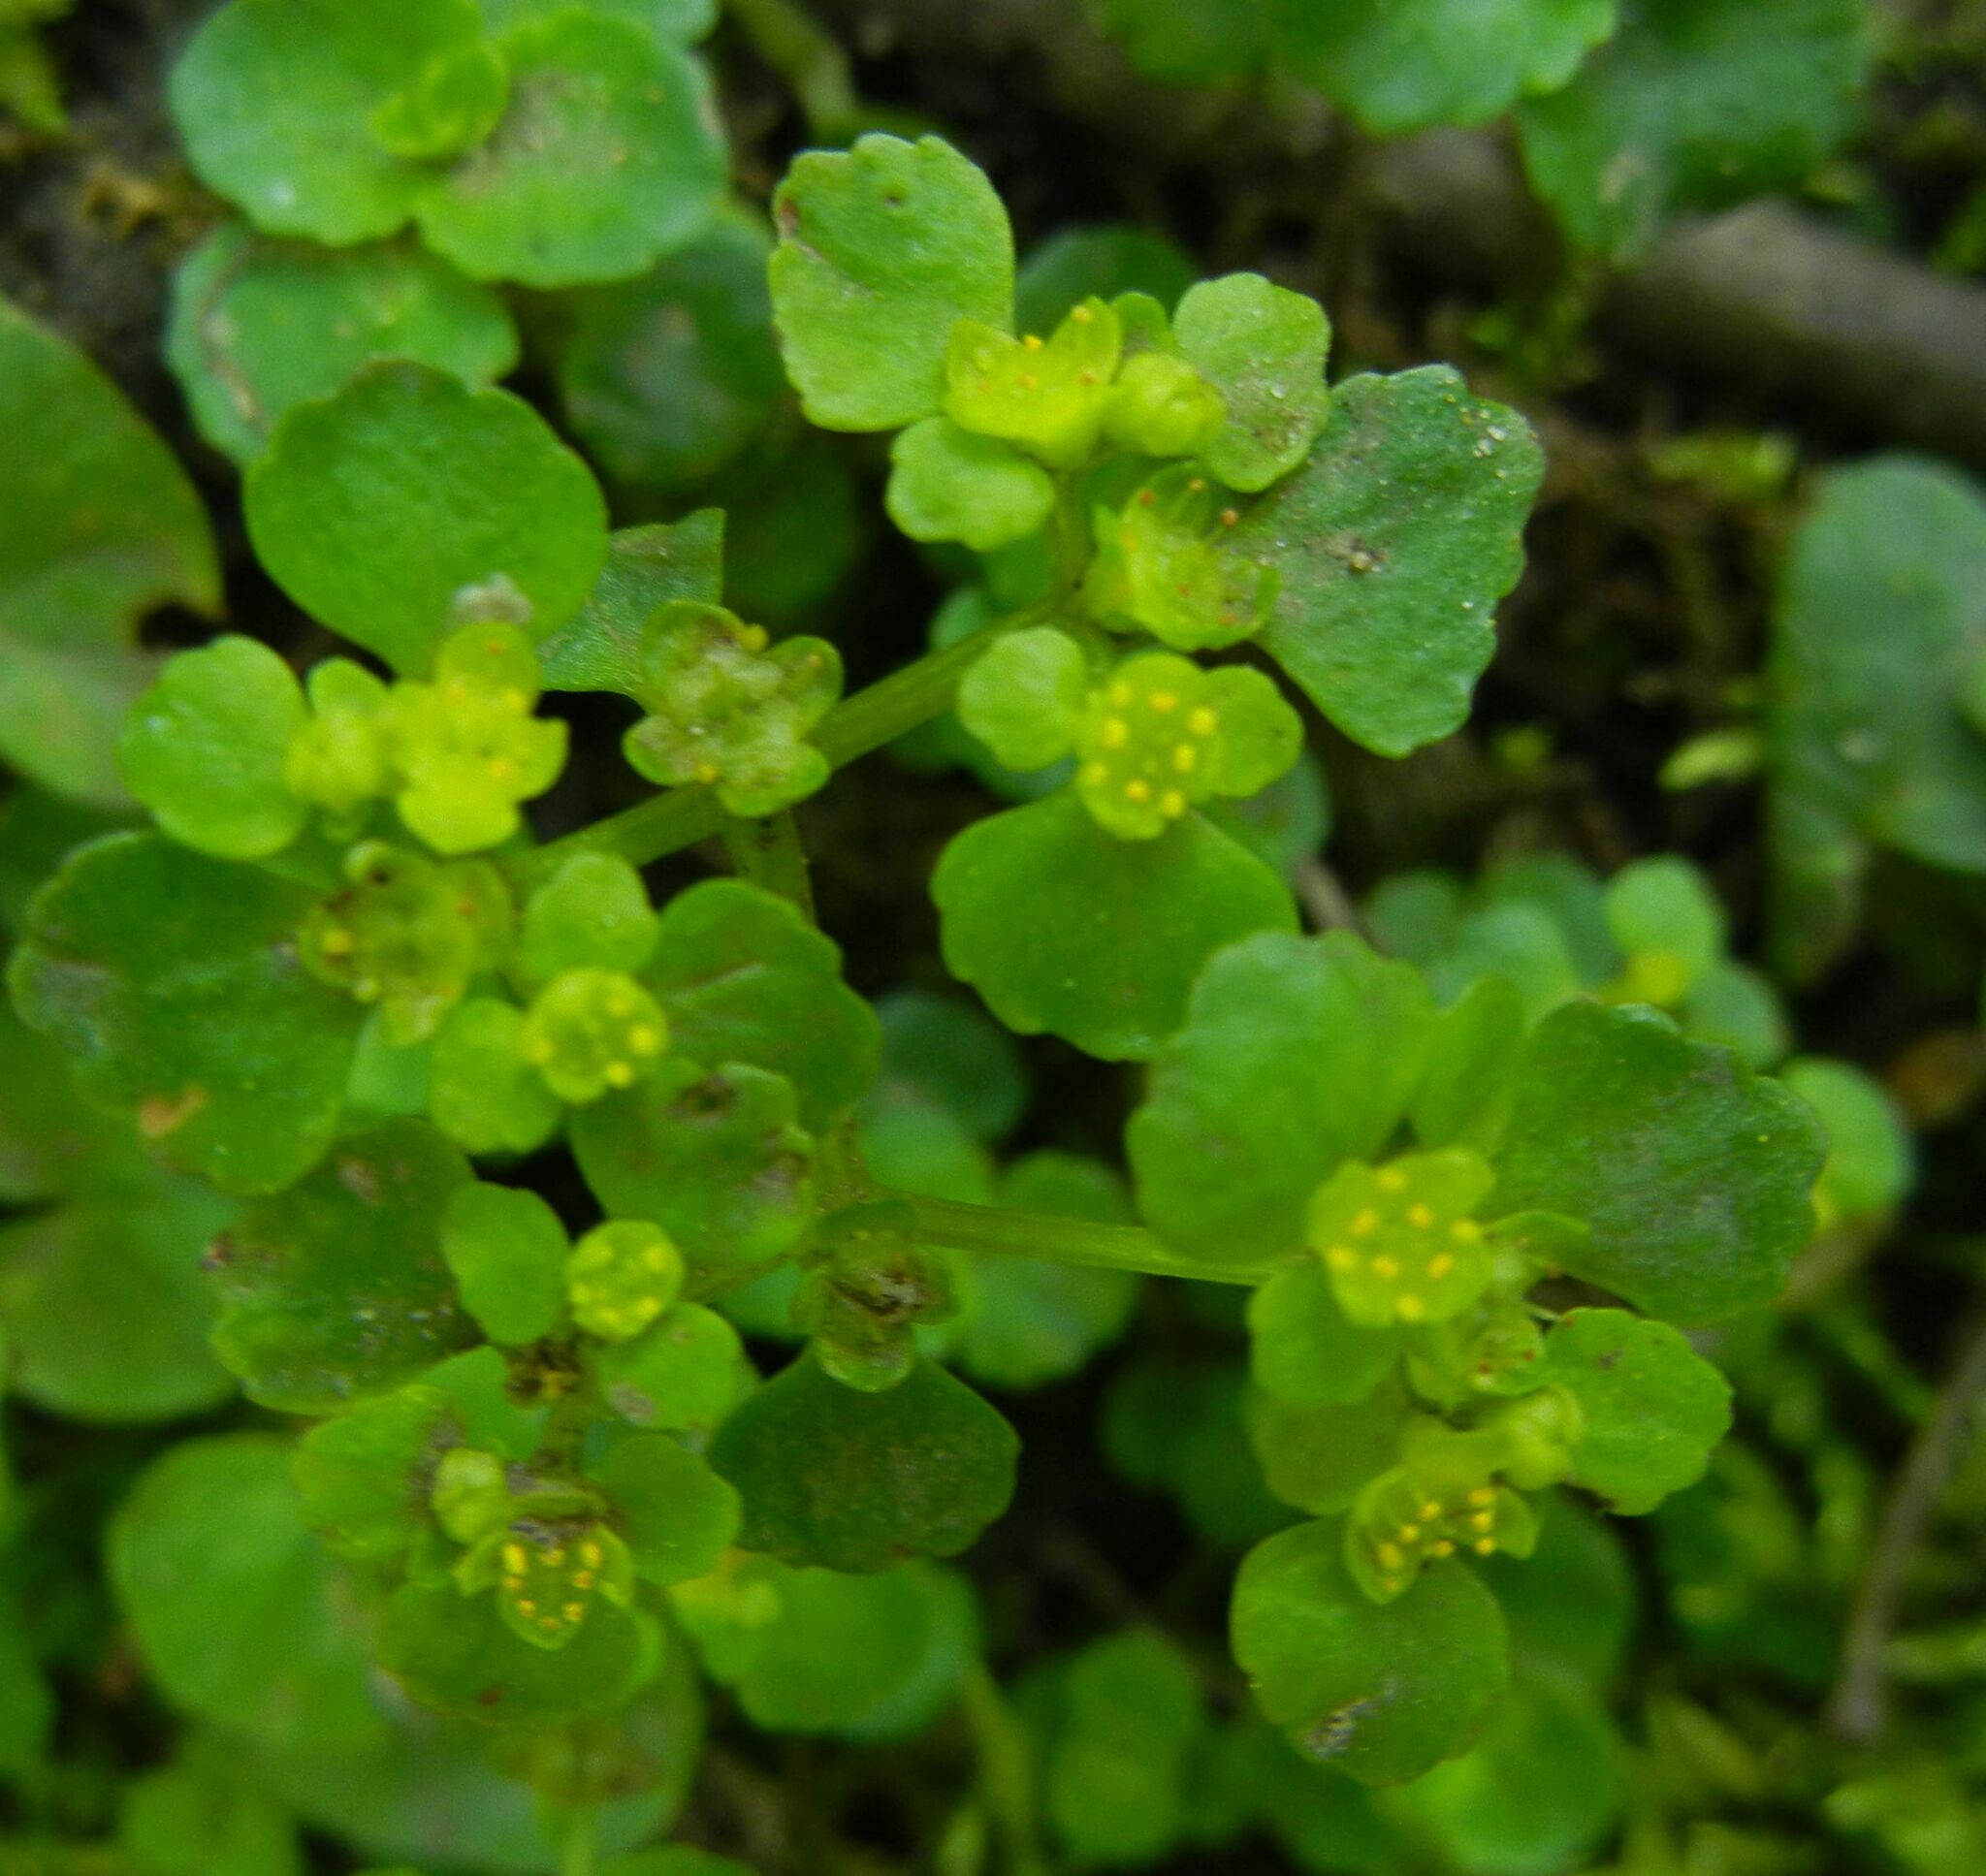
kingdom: Plantae
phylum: Tracheophyta
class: Magnoliopsida
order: Saxifragales
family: Saxifragaceae
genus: Chrysosplenium
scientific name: Chrysosplenium oppositifolium
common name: Opposite-leaved golden-saxifrage
